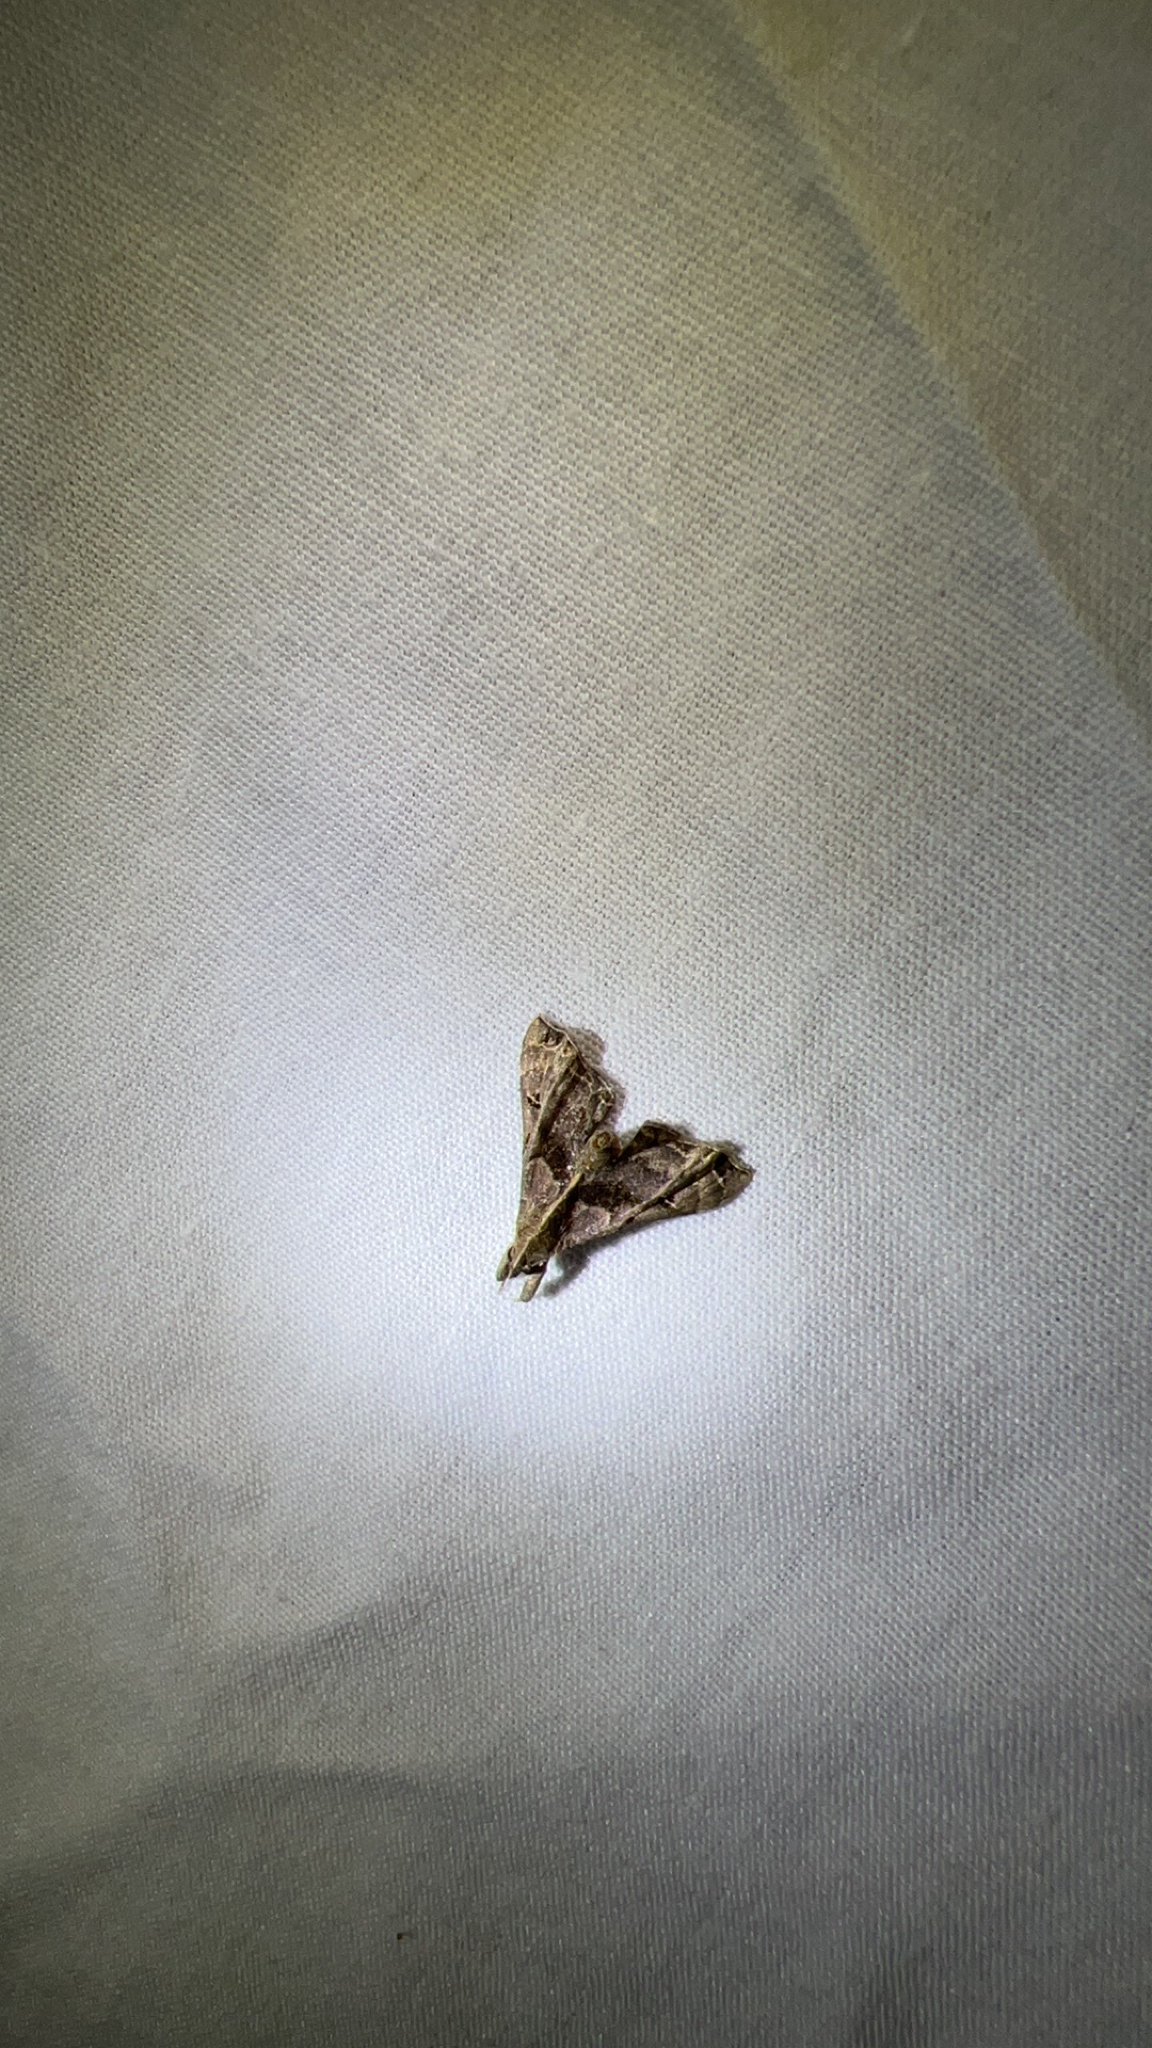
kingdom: Animalia
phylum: Arthropoda
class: Insecta
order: Lepidoptera
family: Erebidae
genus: Palthis
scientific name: Palthis asopialis
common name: Faint-spotted palthis moth
